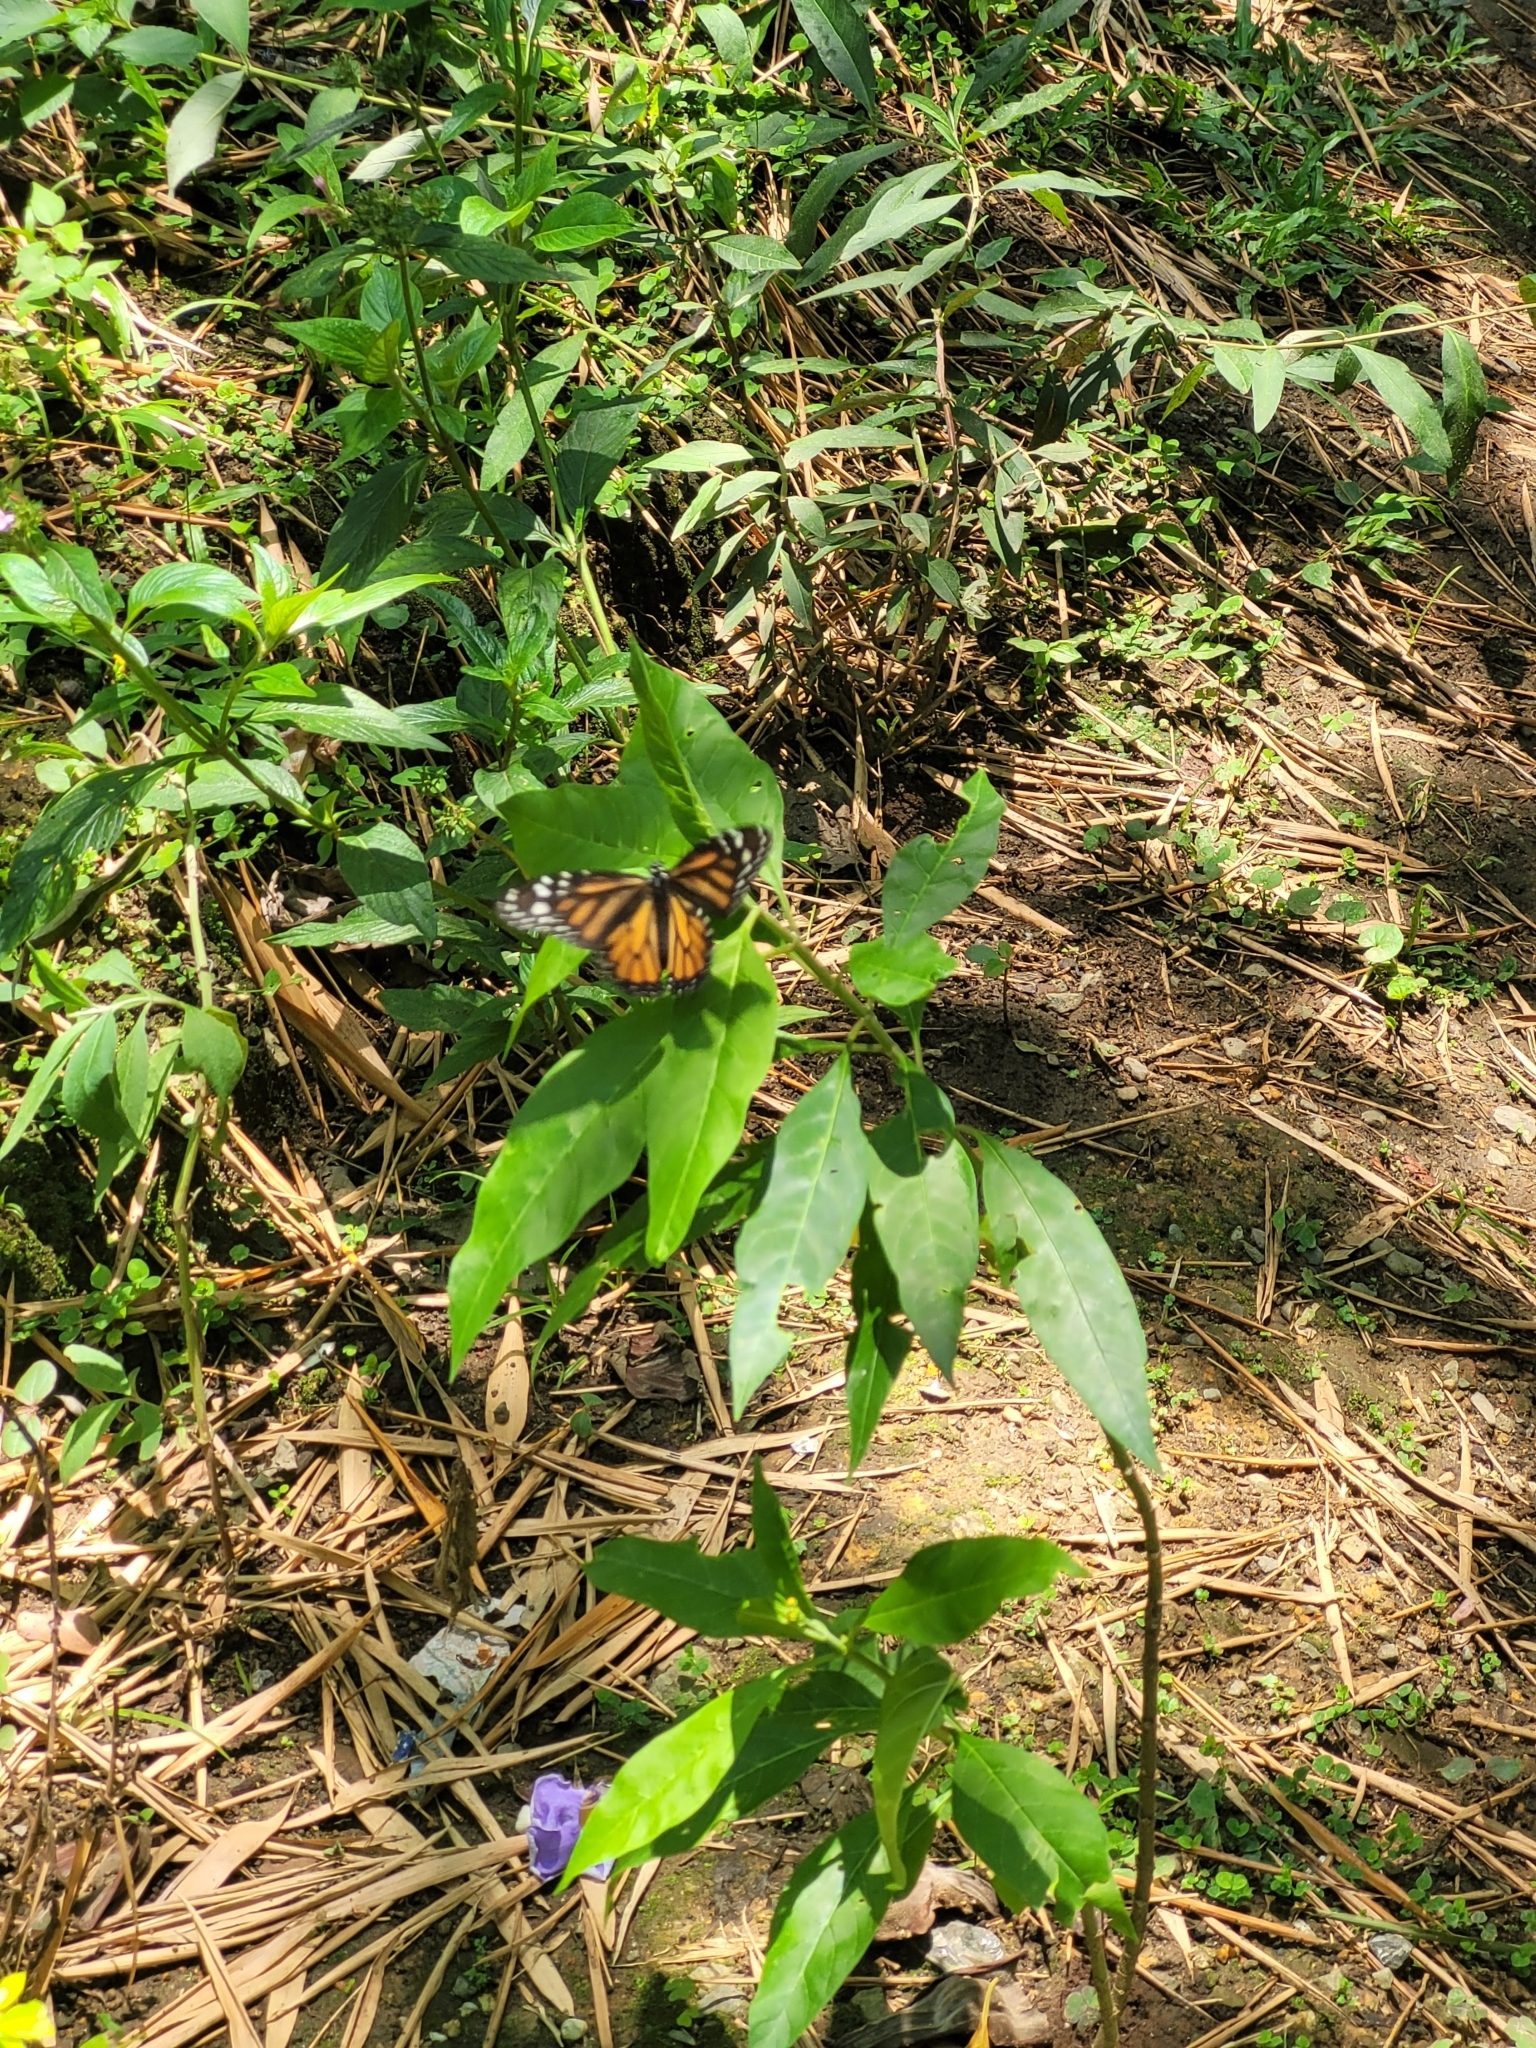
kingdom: Animalia
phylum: Arthropoda
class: Insecta
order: Lepidoptera
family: Nymphalidae
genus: Danaus
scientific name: Danaus plexippus
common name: Monarch
